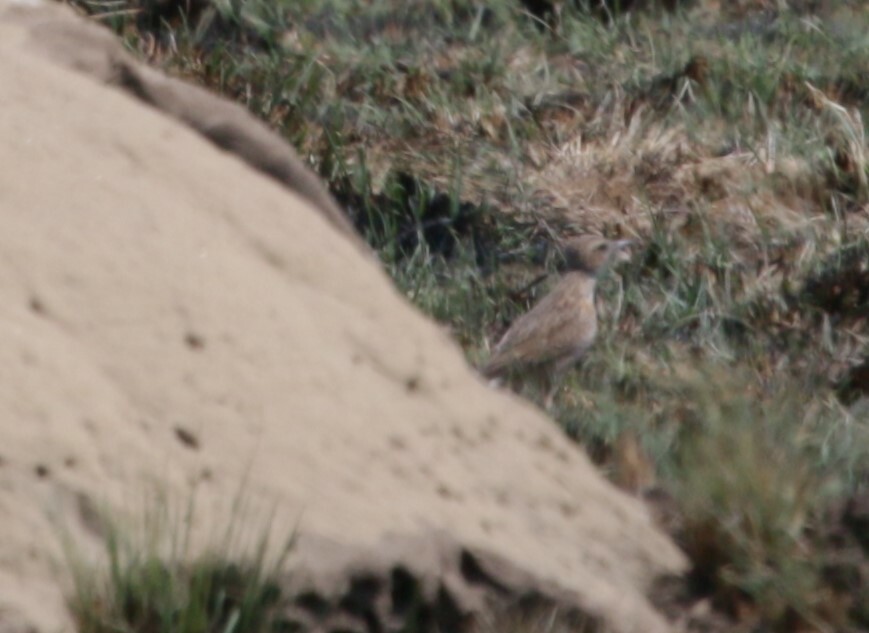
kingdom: Animalia
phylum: Chordata
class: Aves
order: Passeriformes
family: Alaudidae
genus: Chersomanes
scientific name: Chersomanes albofasciata
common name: Spike-heeled lark
